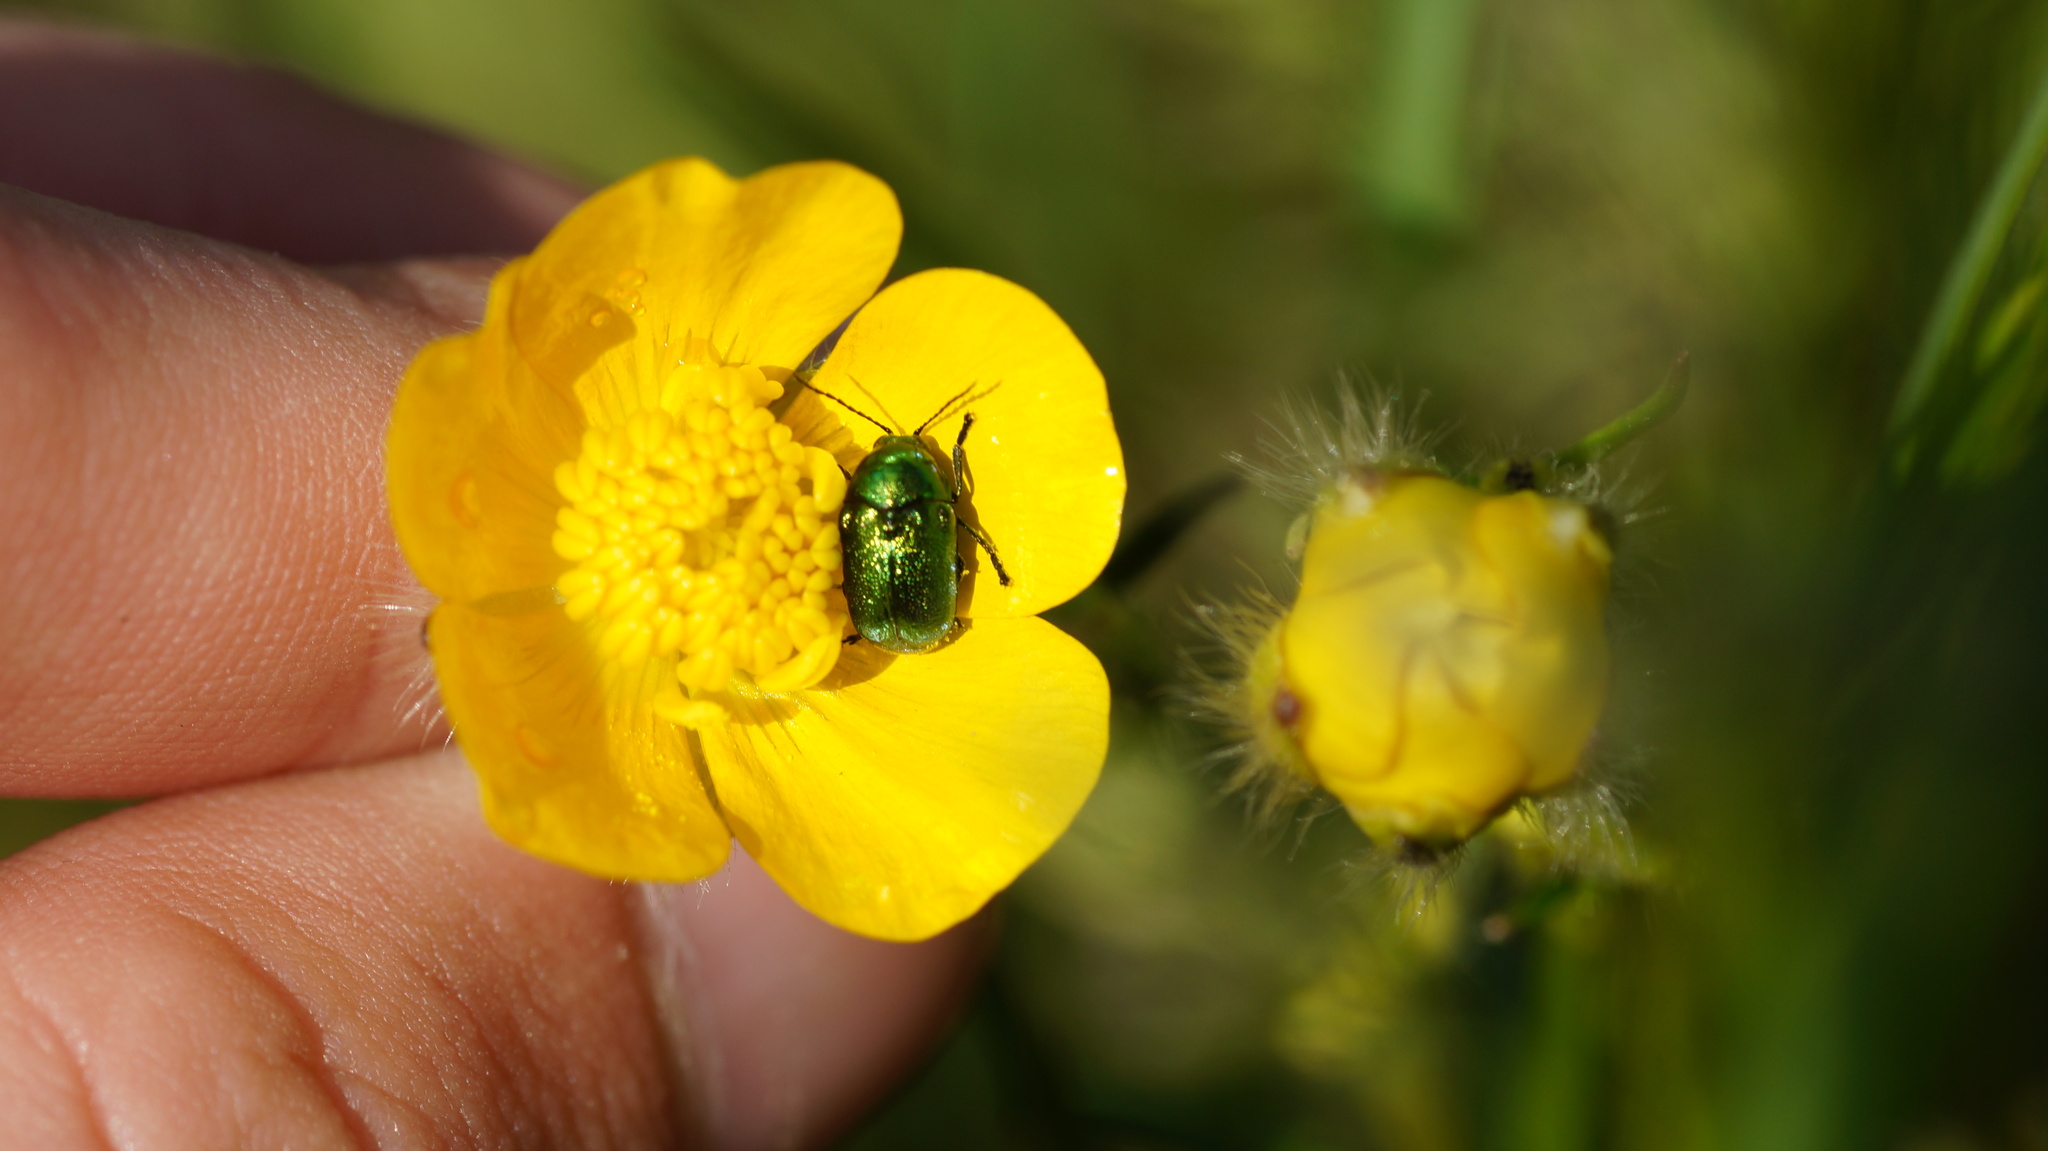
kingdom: Animalia
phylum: Arthropoda
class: Insecta
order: Coleoptera
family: Chrysomelidae
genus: Cryptocephalus
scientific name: Cryptocephalus
